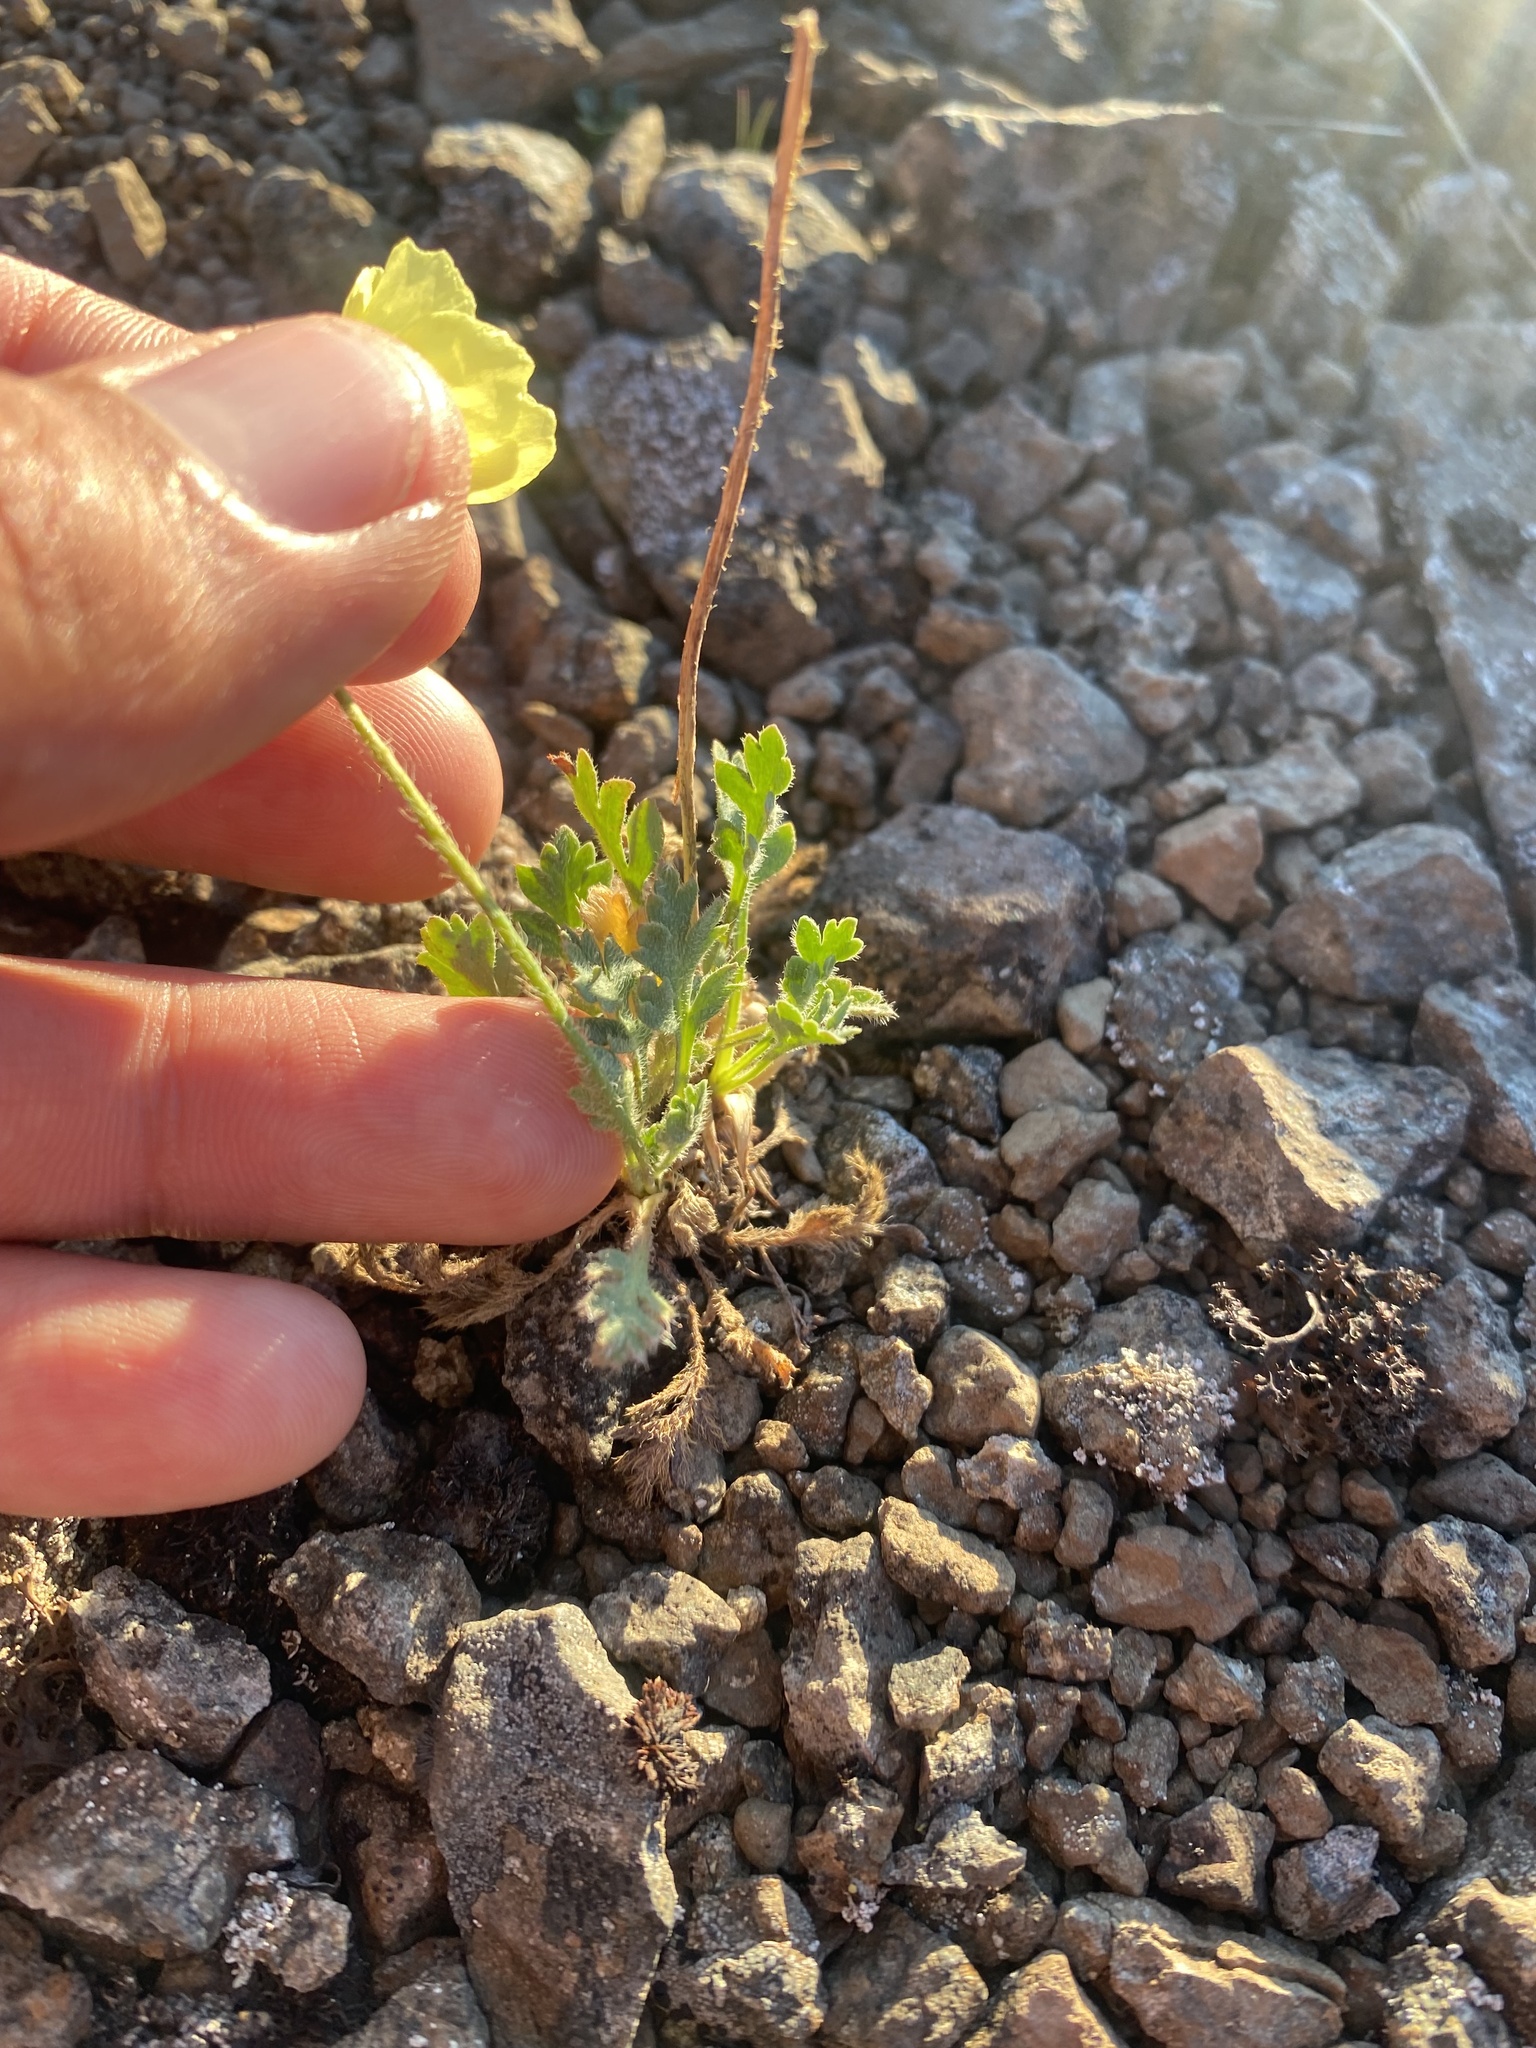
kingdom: Plantae
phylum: Tracheophyta
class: Magnoliopsida
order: Ranunculales
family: Papaveraceae
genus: Papaver
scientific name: Papaver pulvinatum
